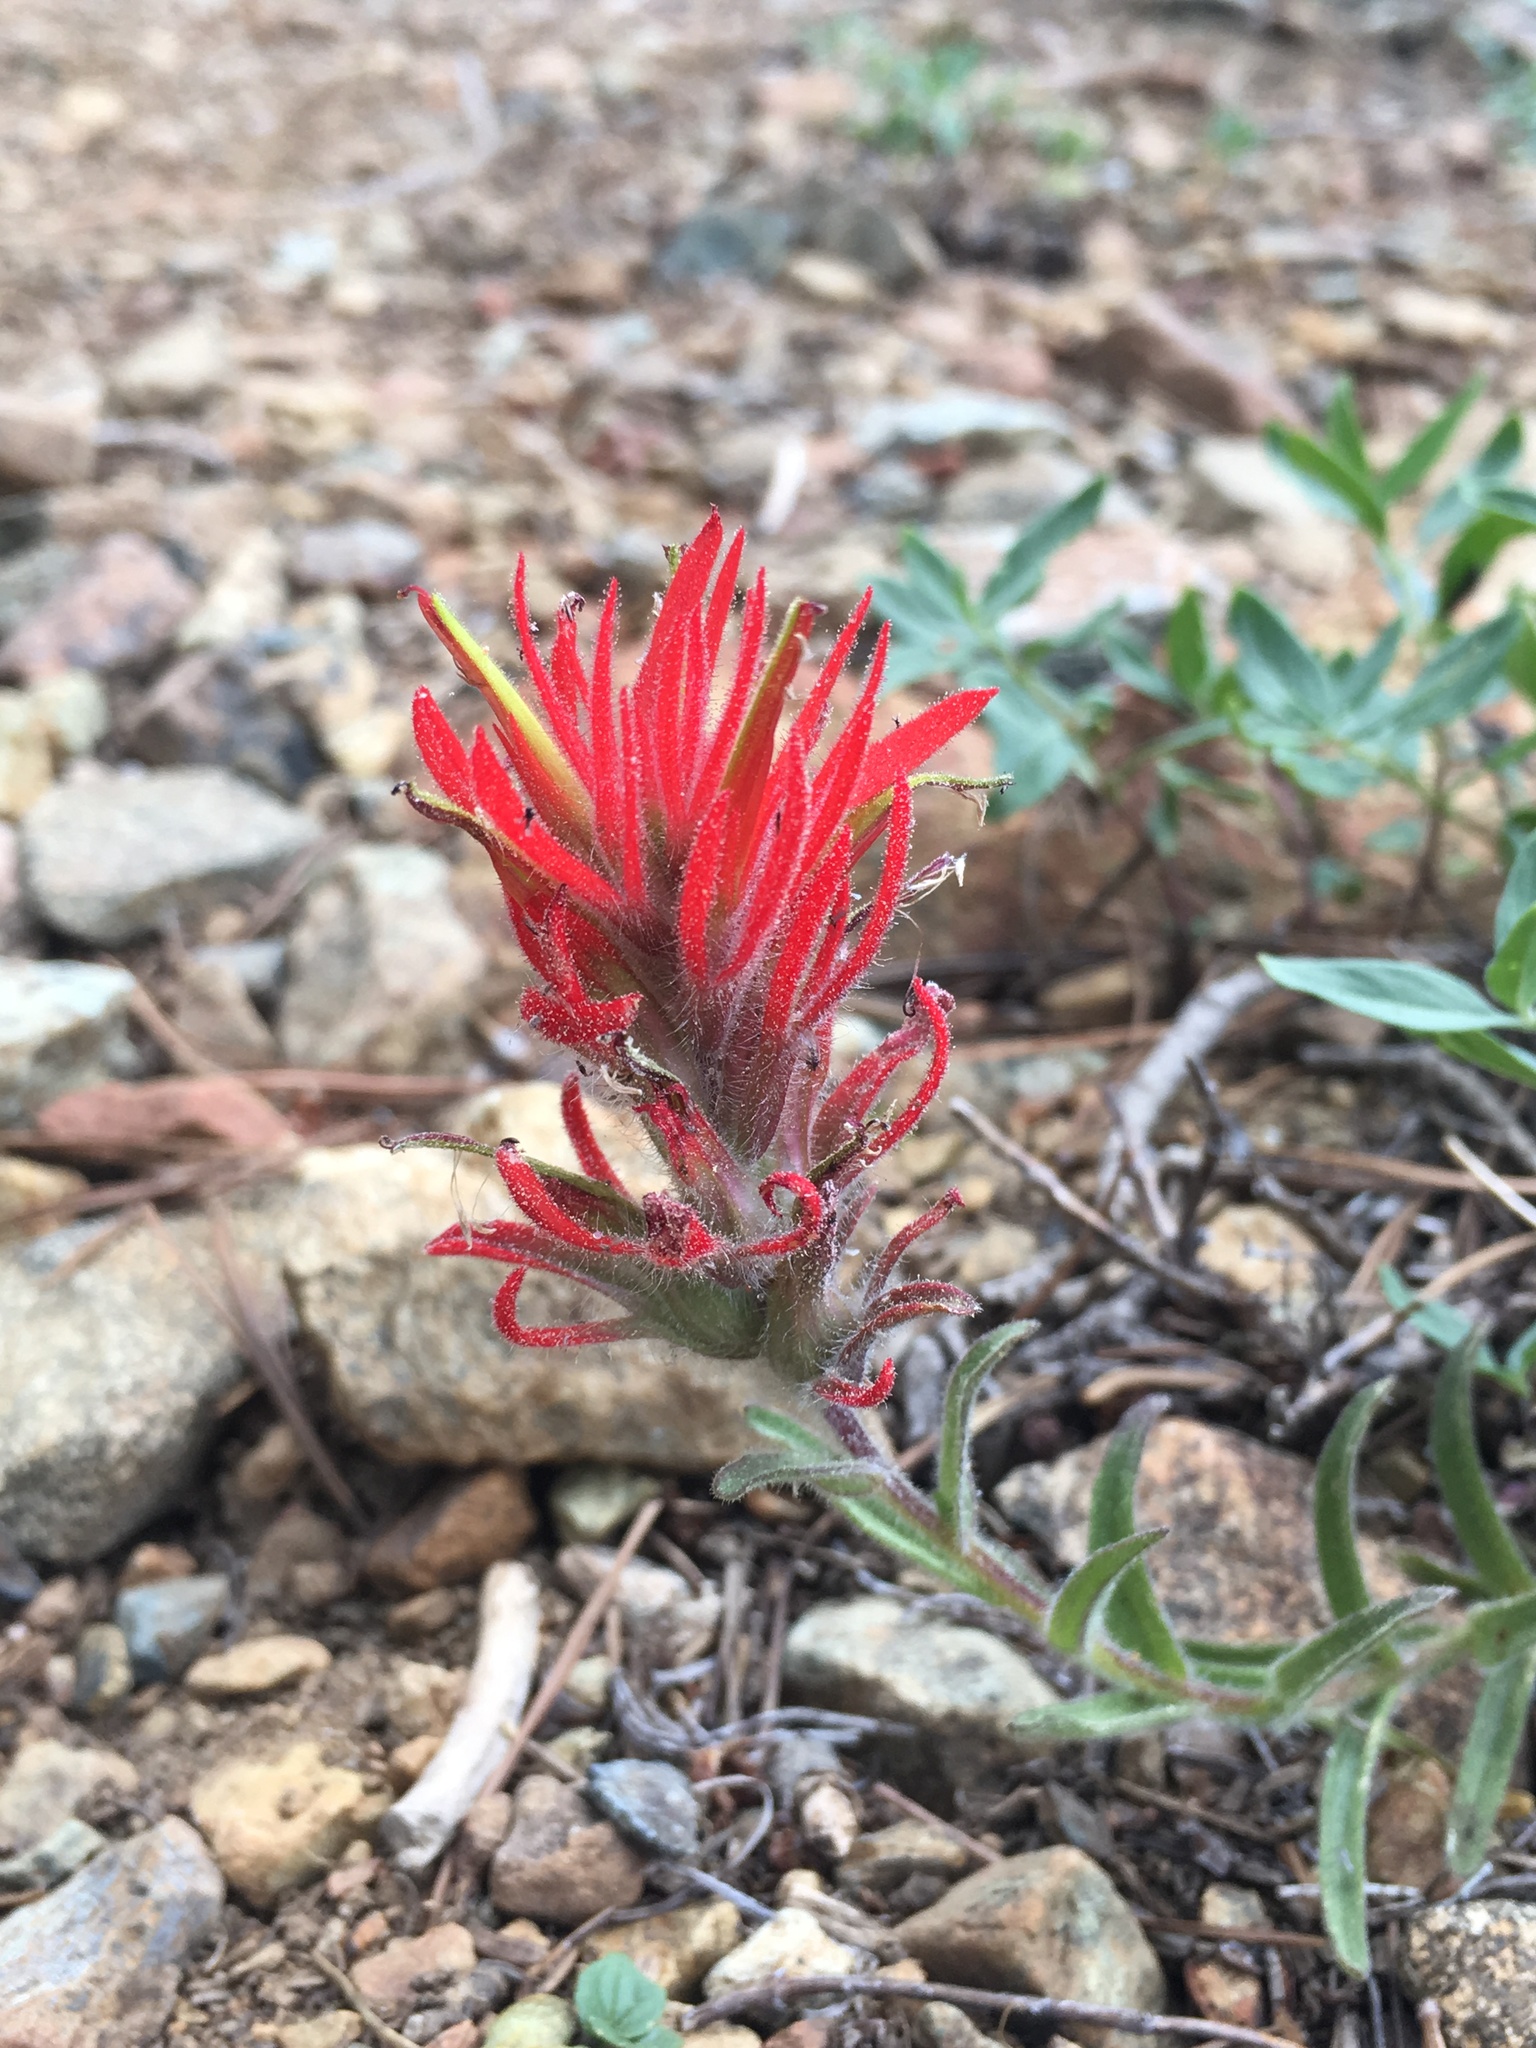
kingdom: Plantae
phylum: Tracheophyta
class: Magnoliopsida
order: Lamiales
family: Orobanchaceae
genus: Castilleja
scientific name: Castilleja applegatei
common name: Wavy-leaf paintbrush
